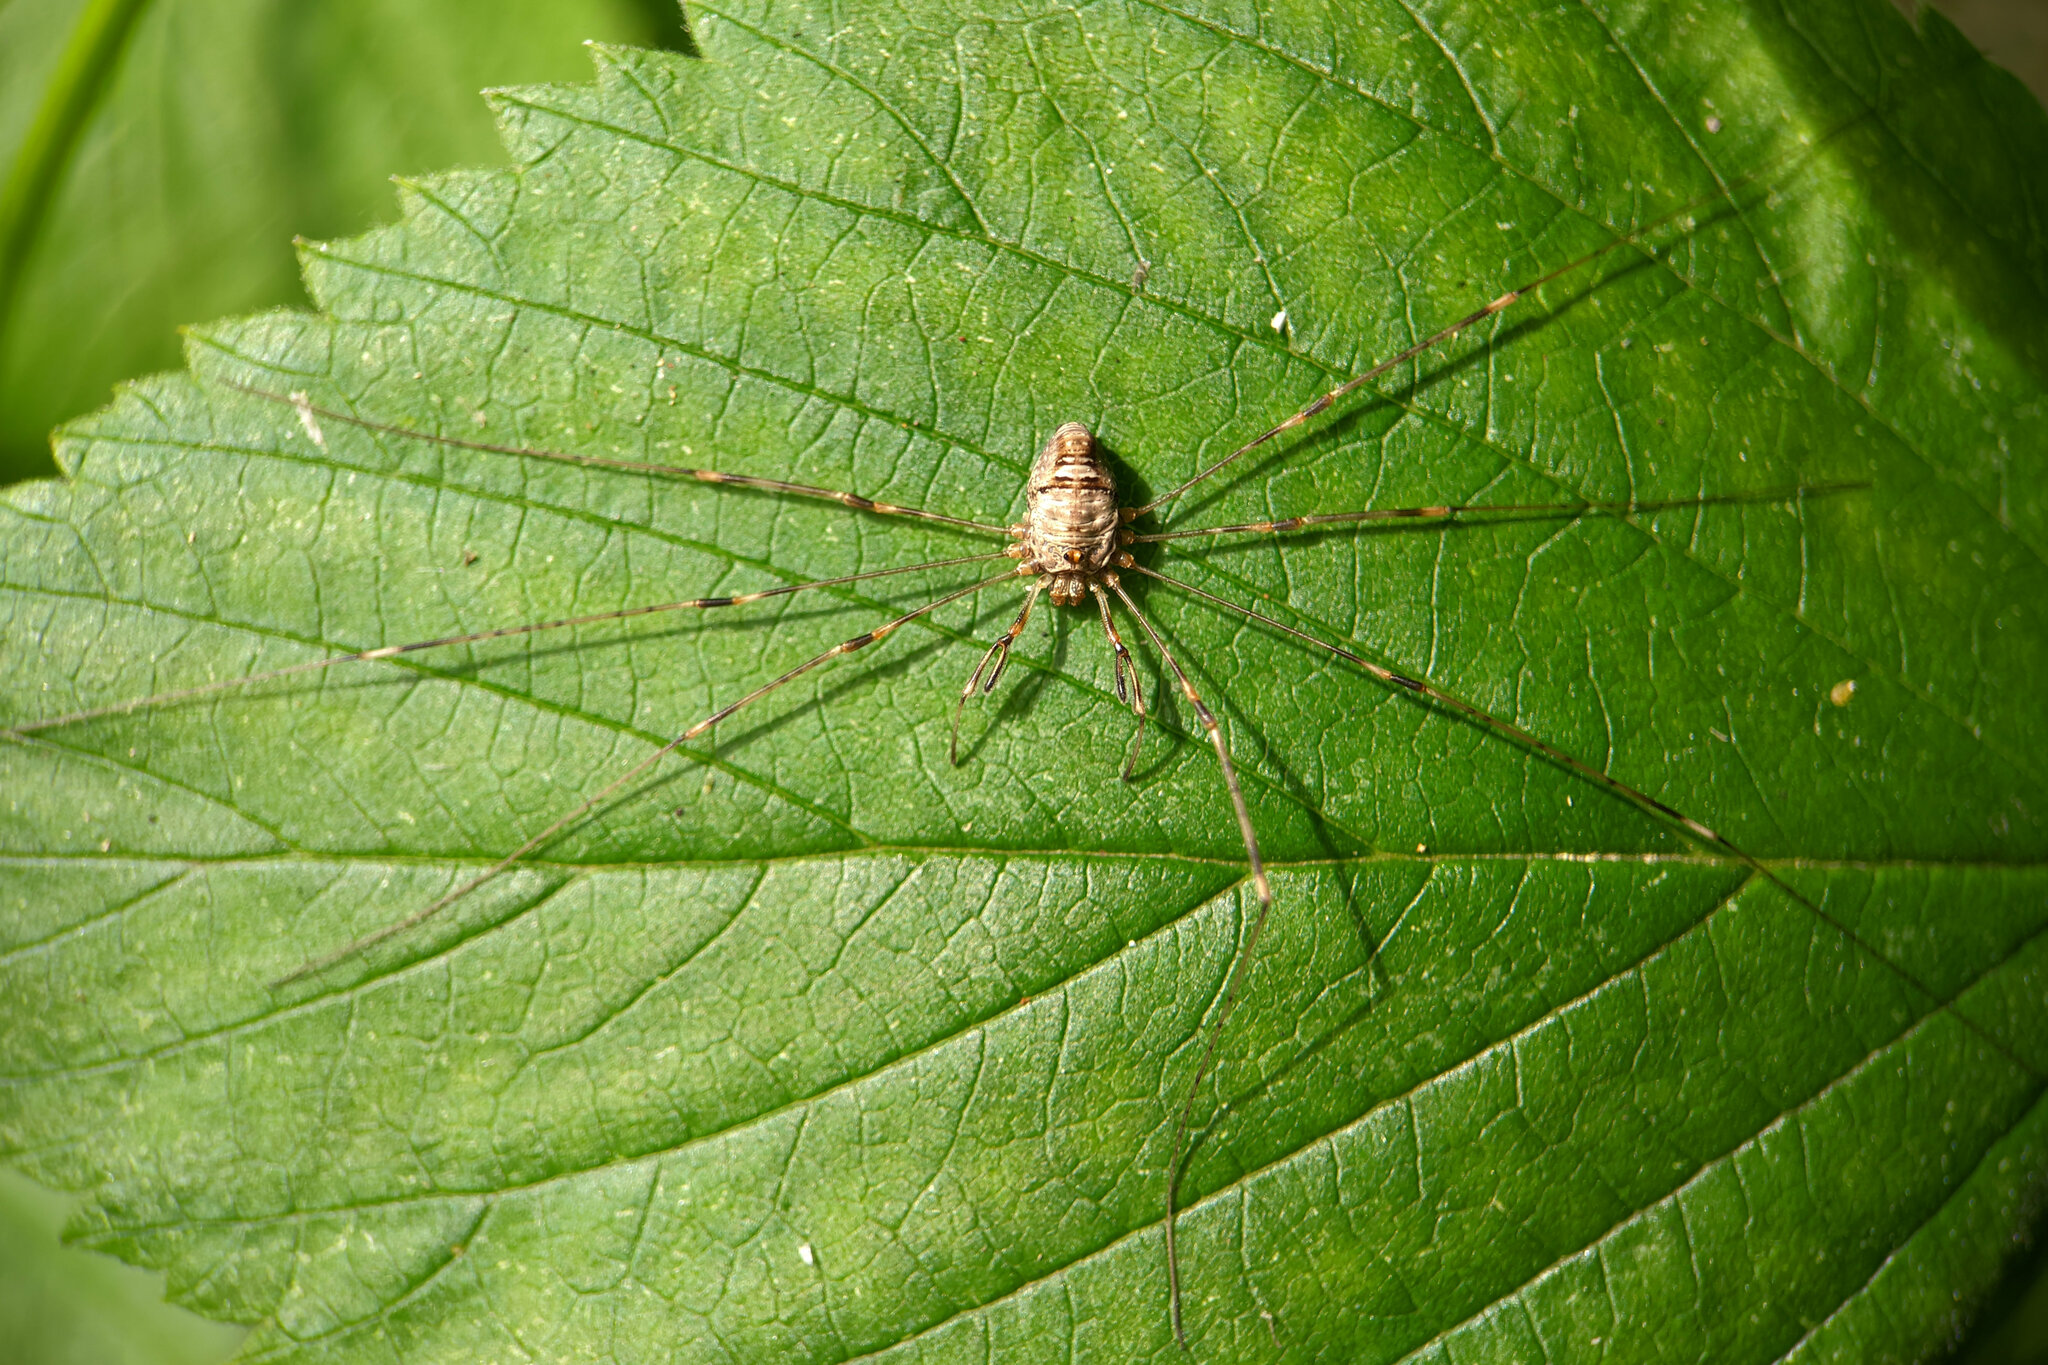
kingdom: Animalia
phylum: Arthropoda
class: Arachnida
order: Opiliones
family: Phalangiidae
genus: Dicranopalpus
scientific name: Dicranopalpus ramosus
